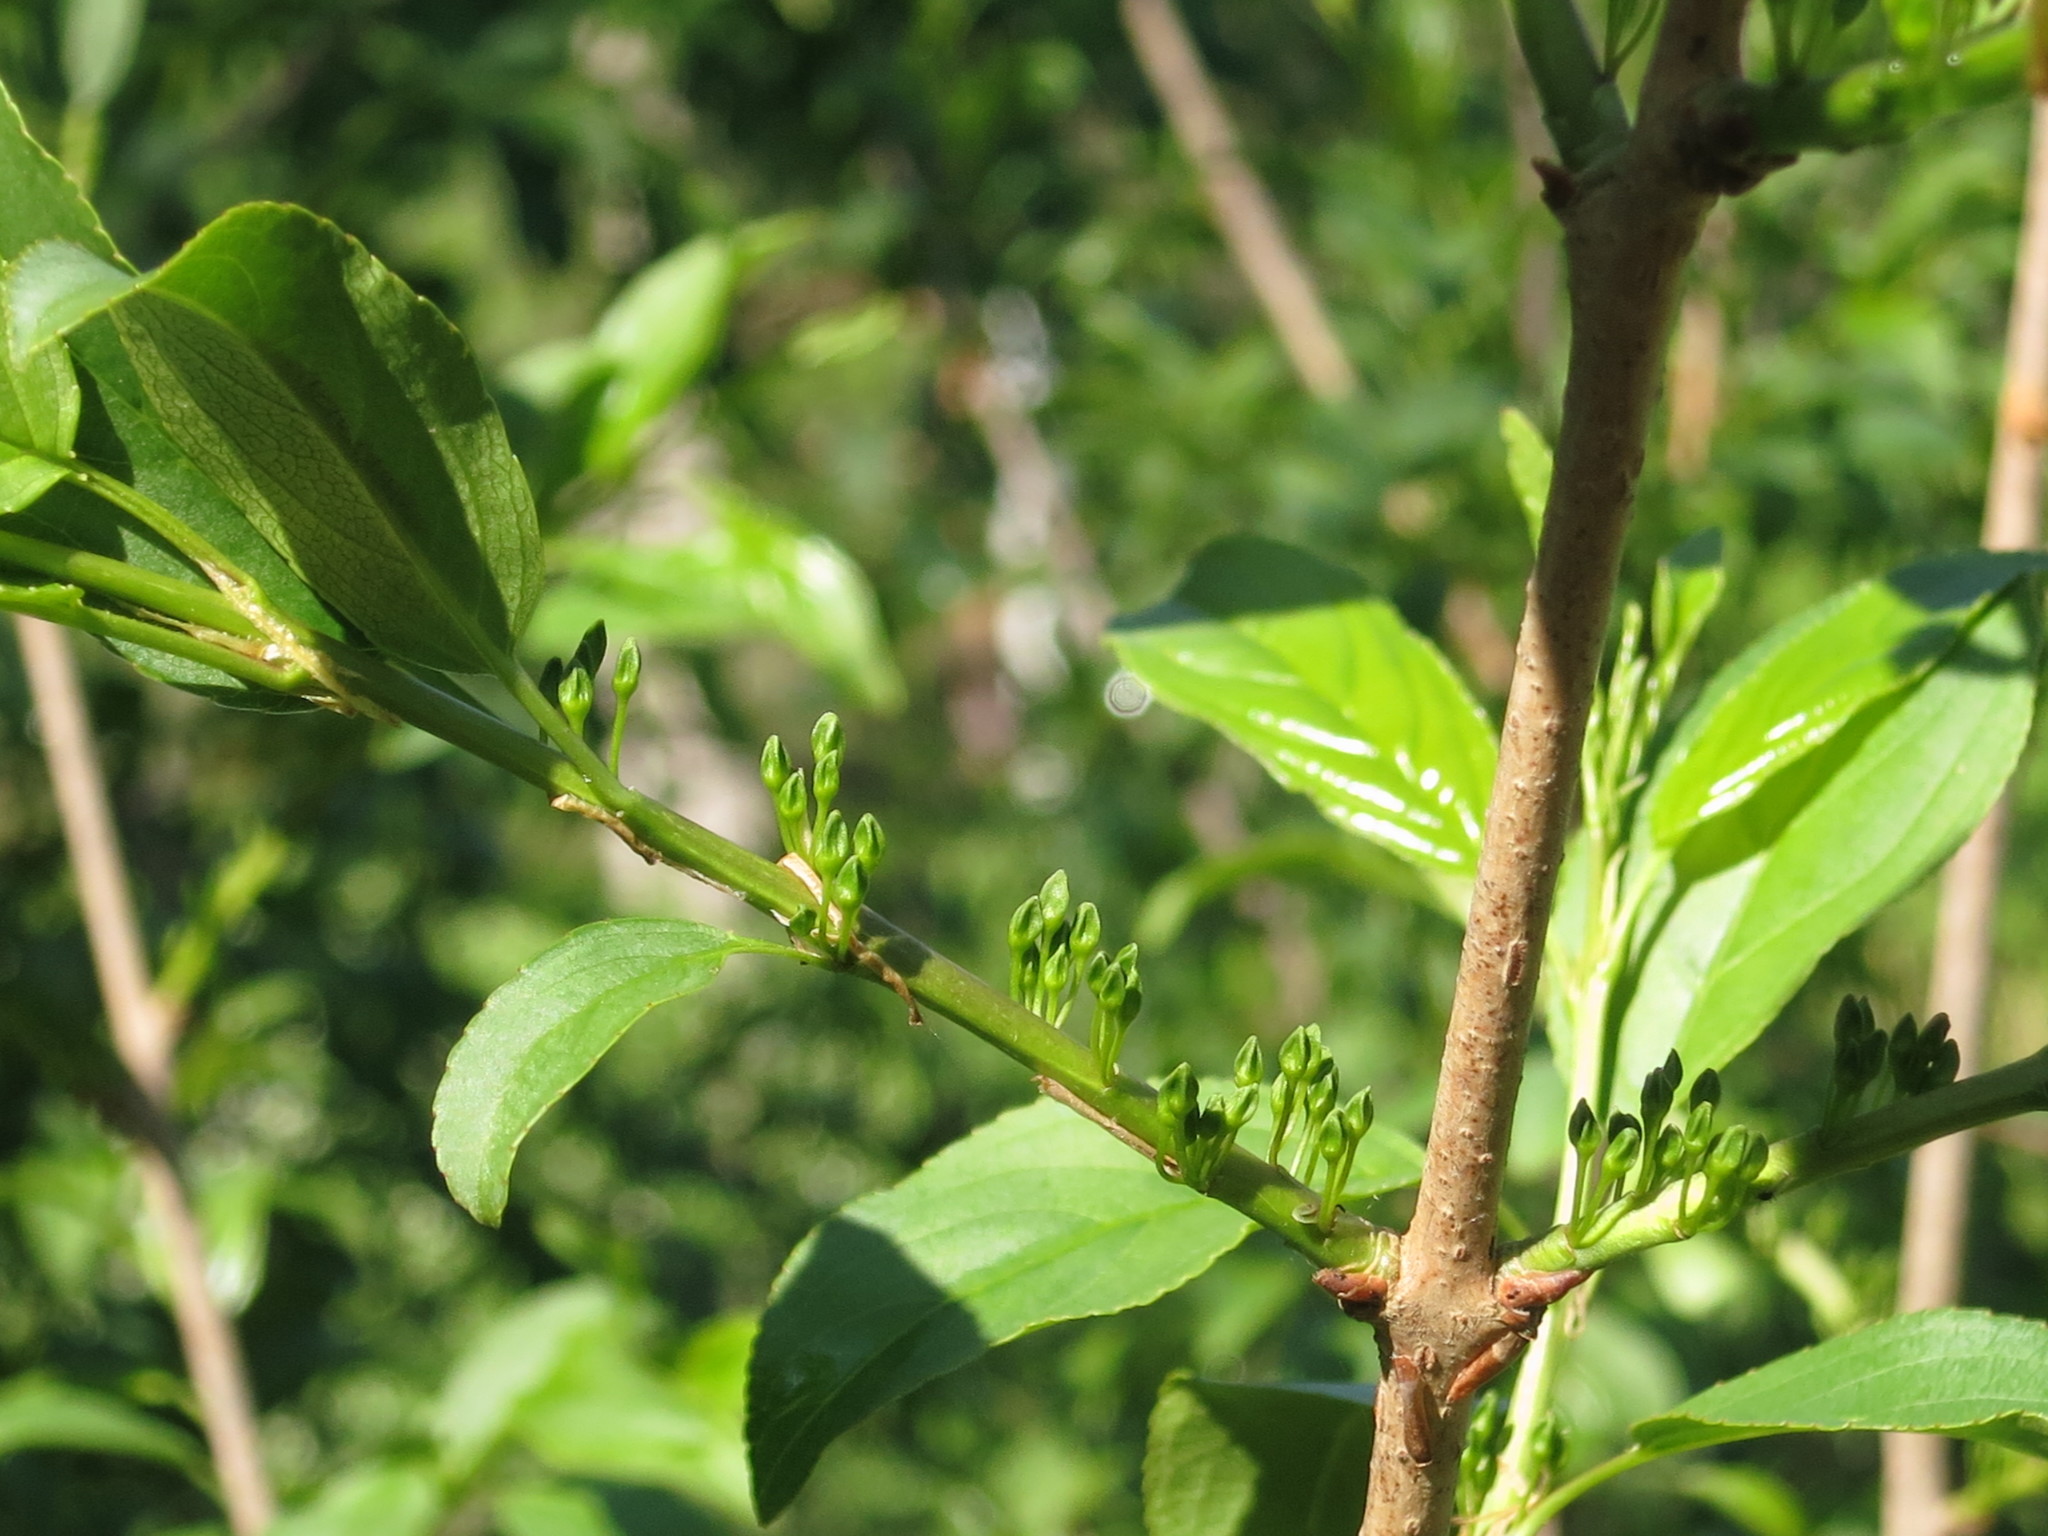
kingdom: Plantae
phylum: Tracheophyta
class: Magnoliopsida
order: Rosales
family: Rhamnaceae
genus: Rhamnus
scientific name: Rhamnus ussuriensis
